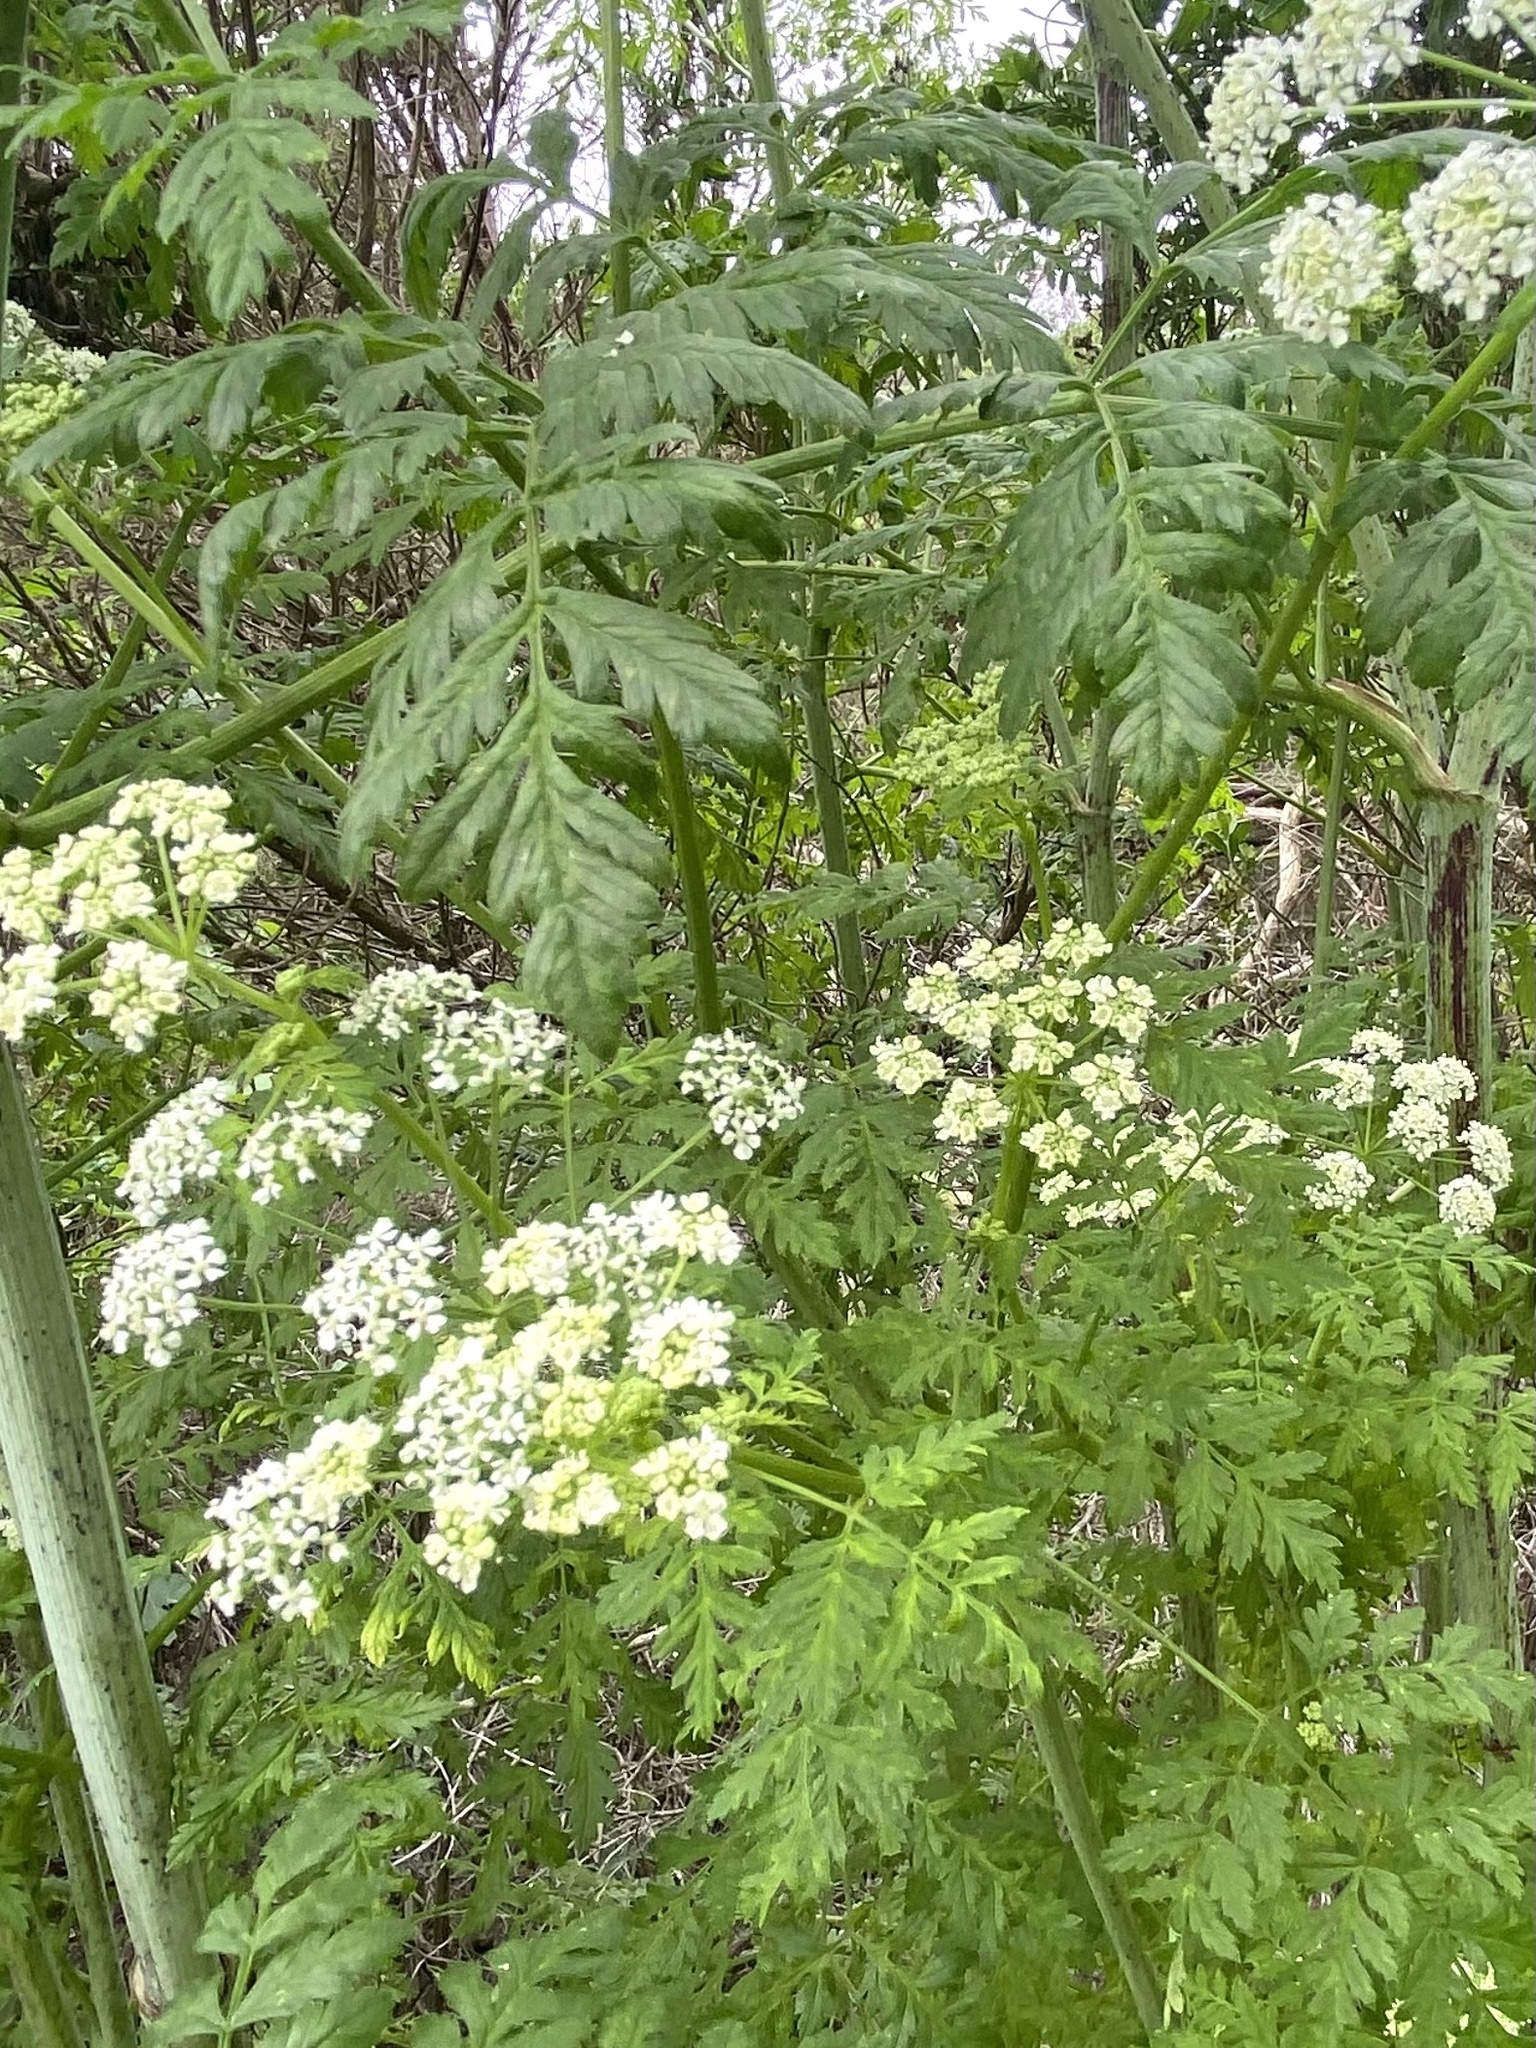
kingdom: Plantae
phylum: Tracheophyta
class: Magnoliopsida
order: Apiales
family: Apiaceae
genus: Conium
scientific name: Conium maculatum
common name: Hemlock
